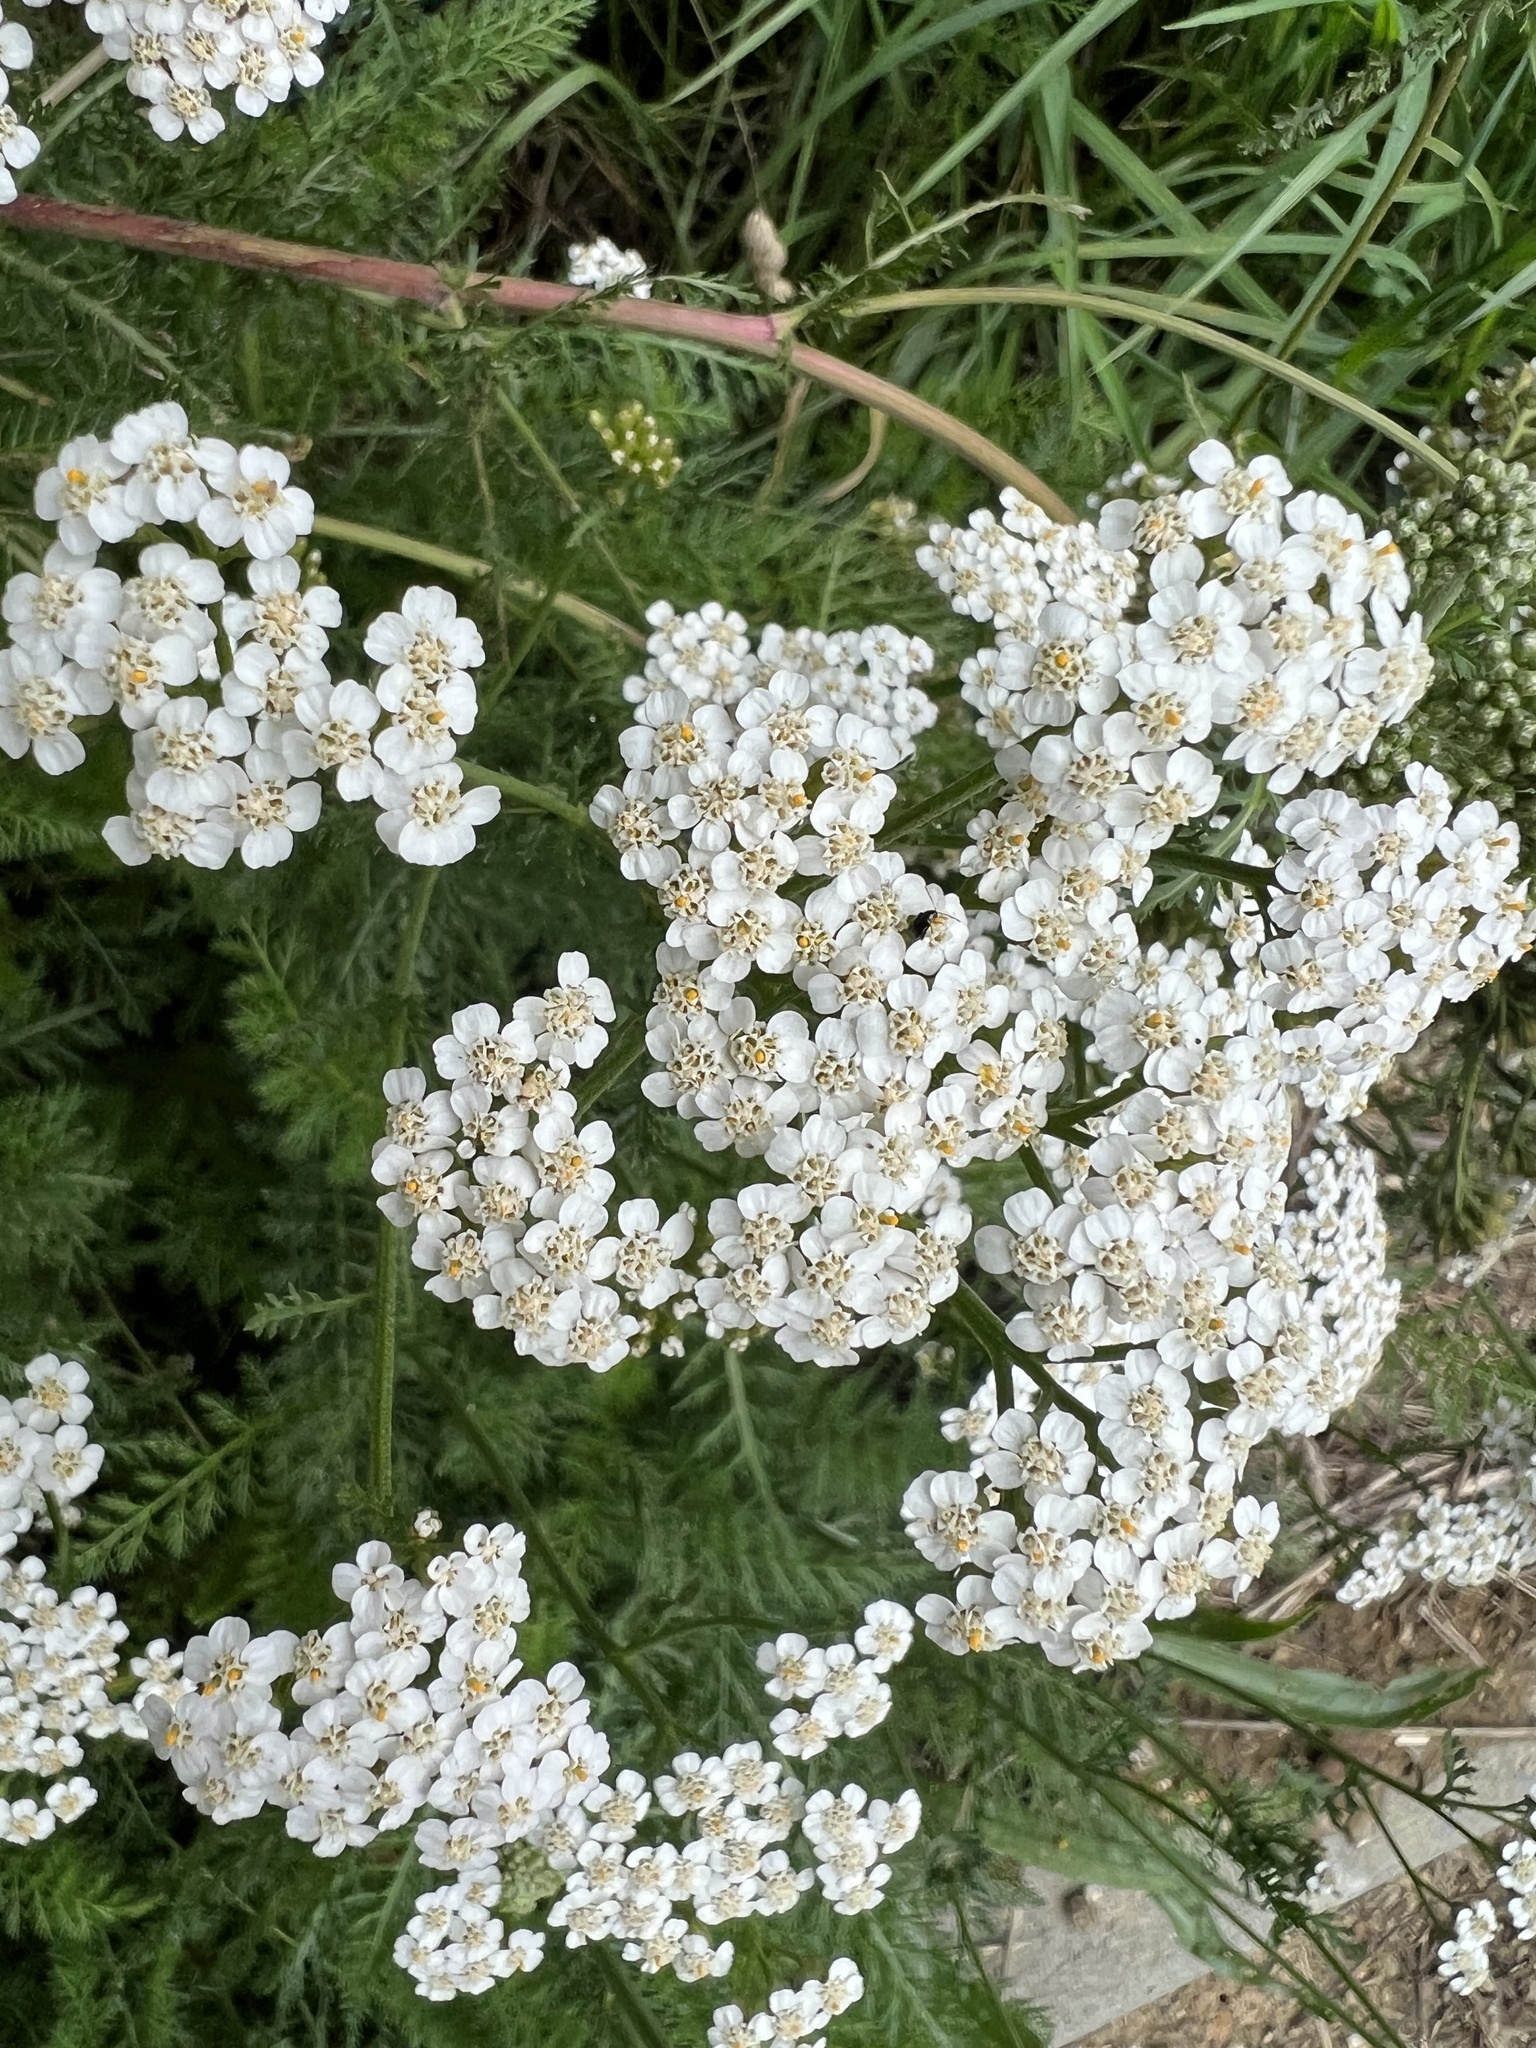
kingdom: Plantae
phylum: Tracheophyta
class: Magnoliopsida
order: Asterales
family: Asteraceae
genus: Achillea
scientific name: Achillea millefolium
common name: Yarrow
